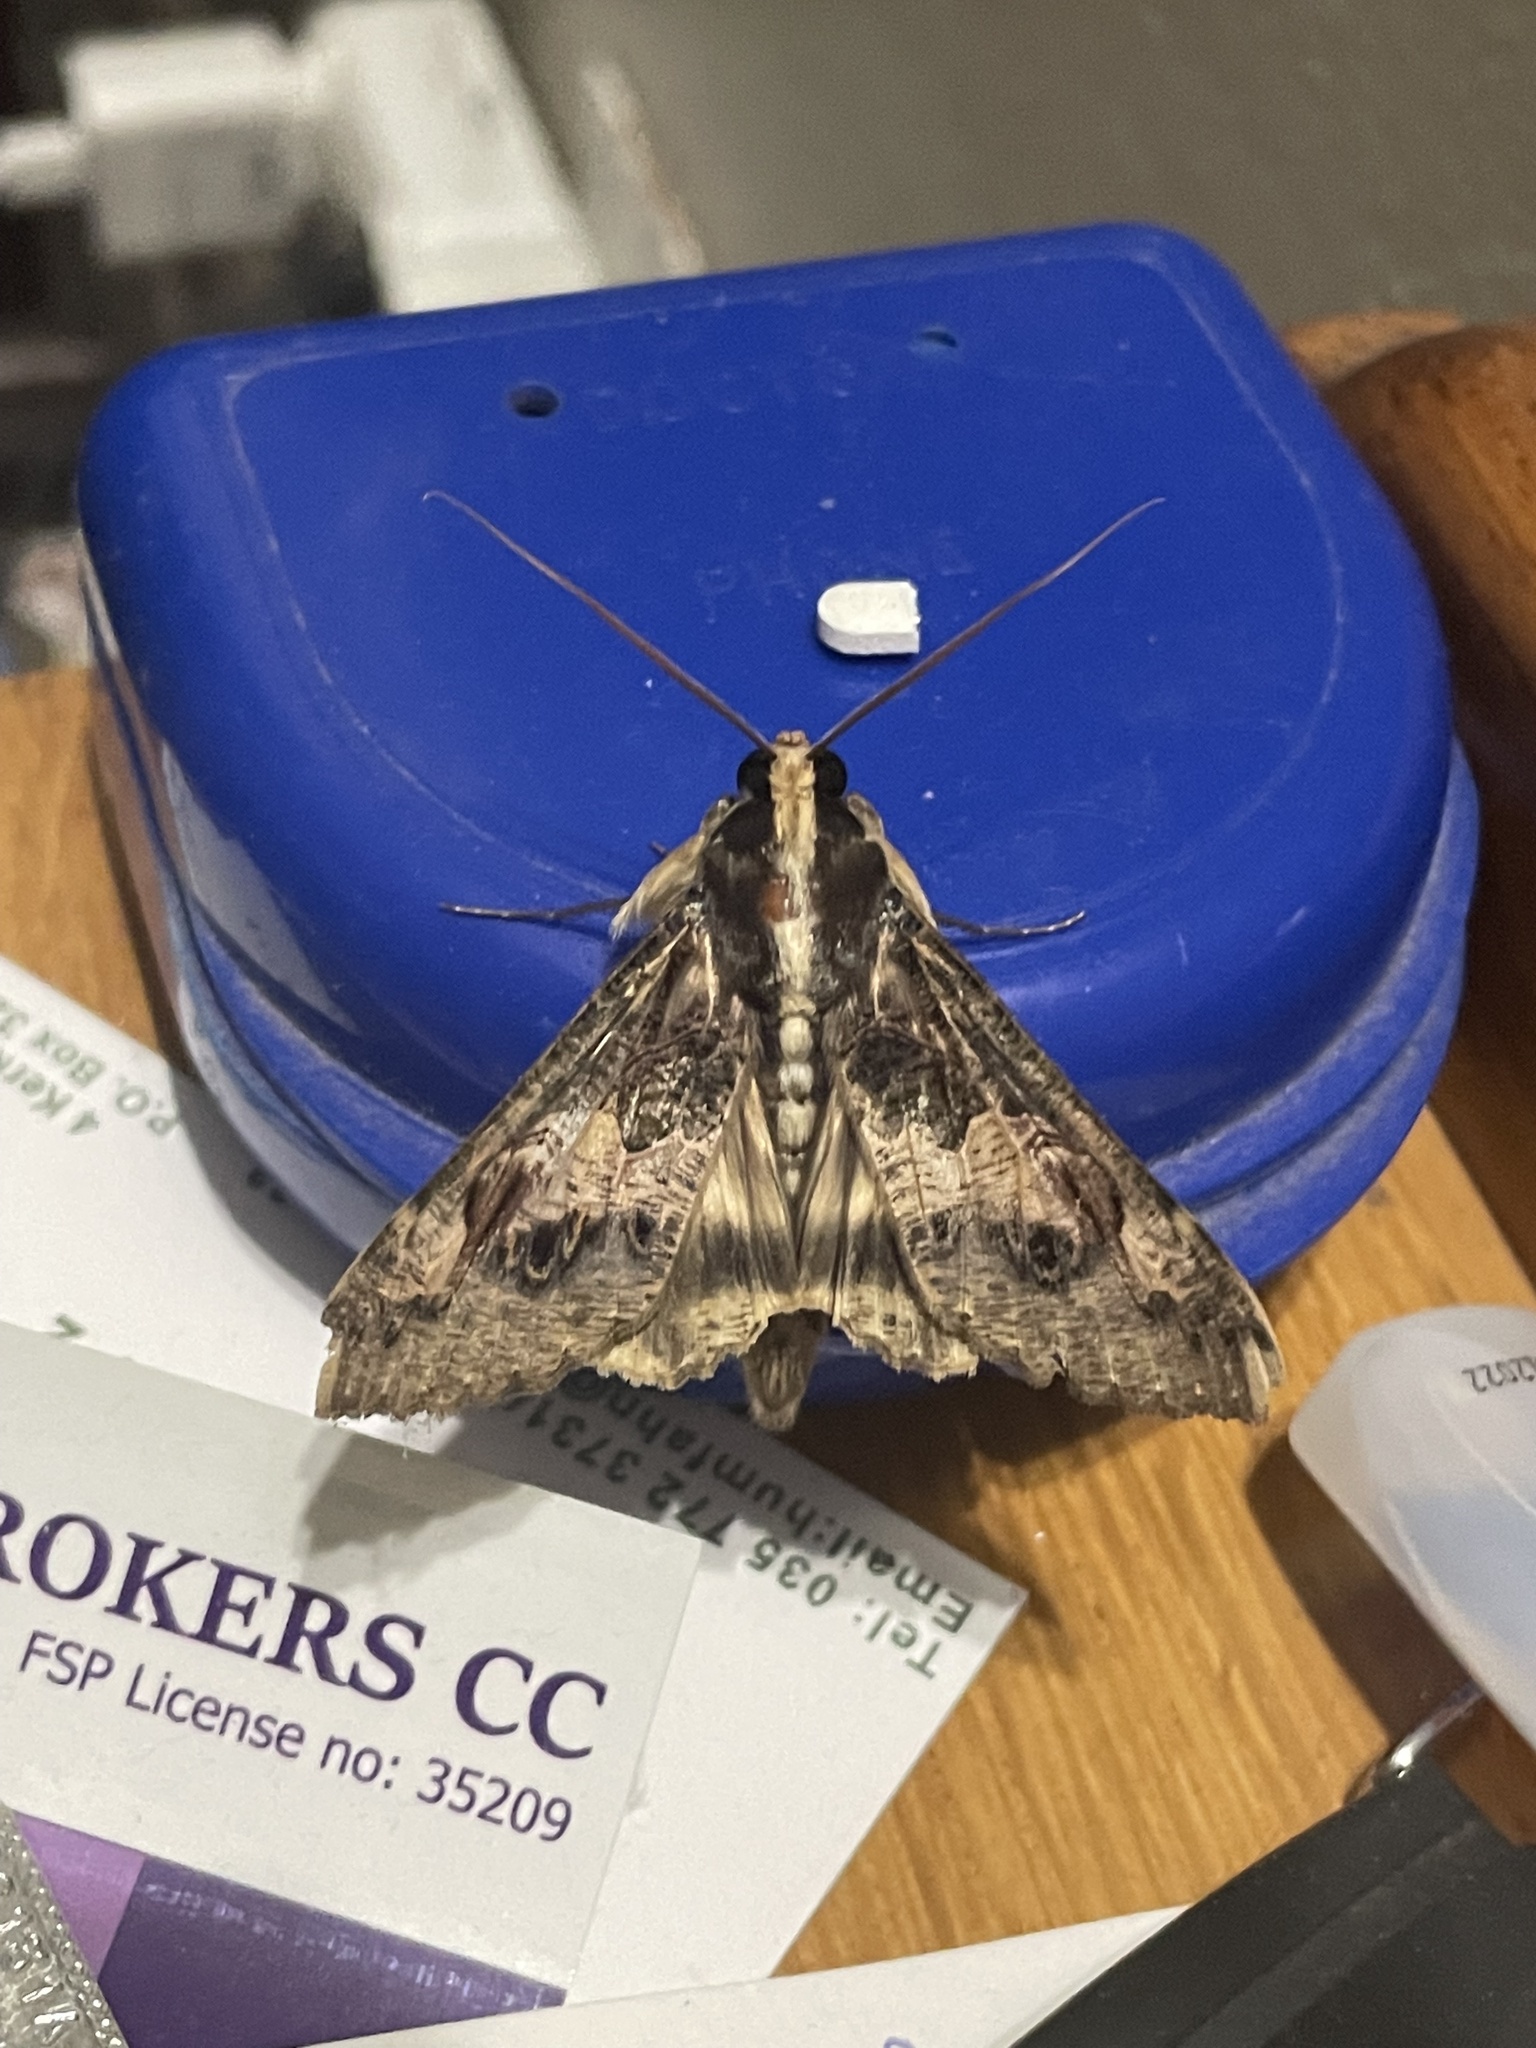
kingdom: Animalia
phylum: Arthropoda
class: Insecta
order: Lepidoptera
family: Erebidae
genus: Sphingomorpha
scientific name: Sphingomorpha chlorea
